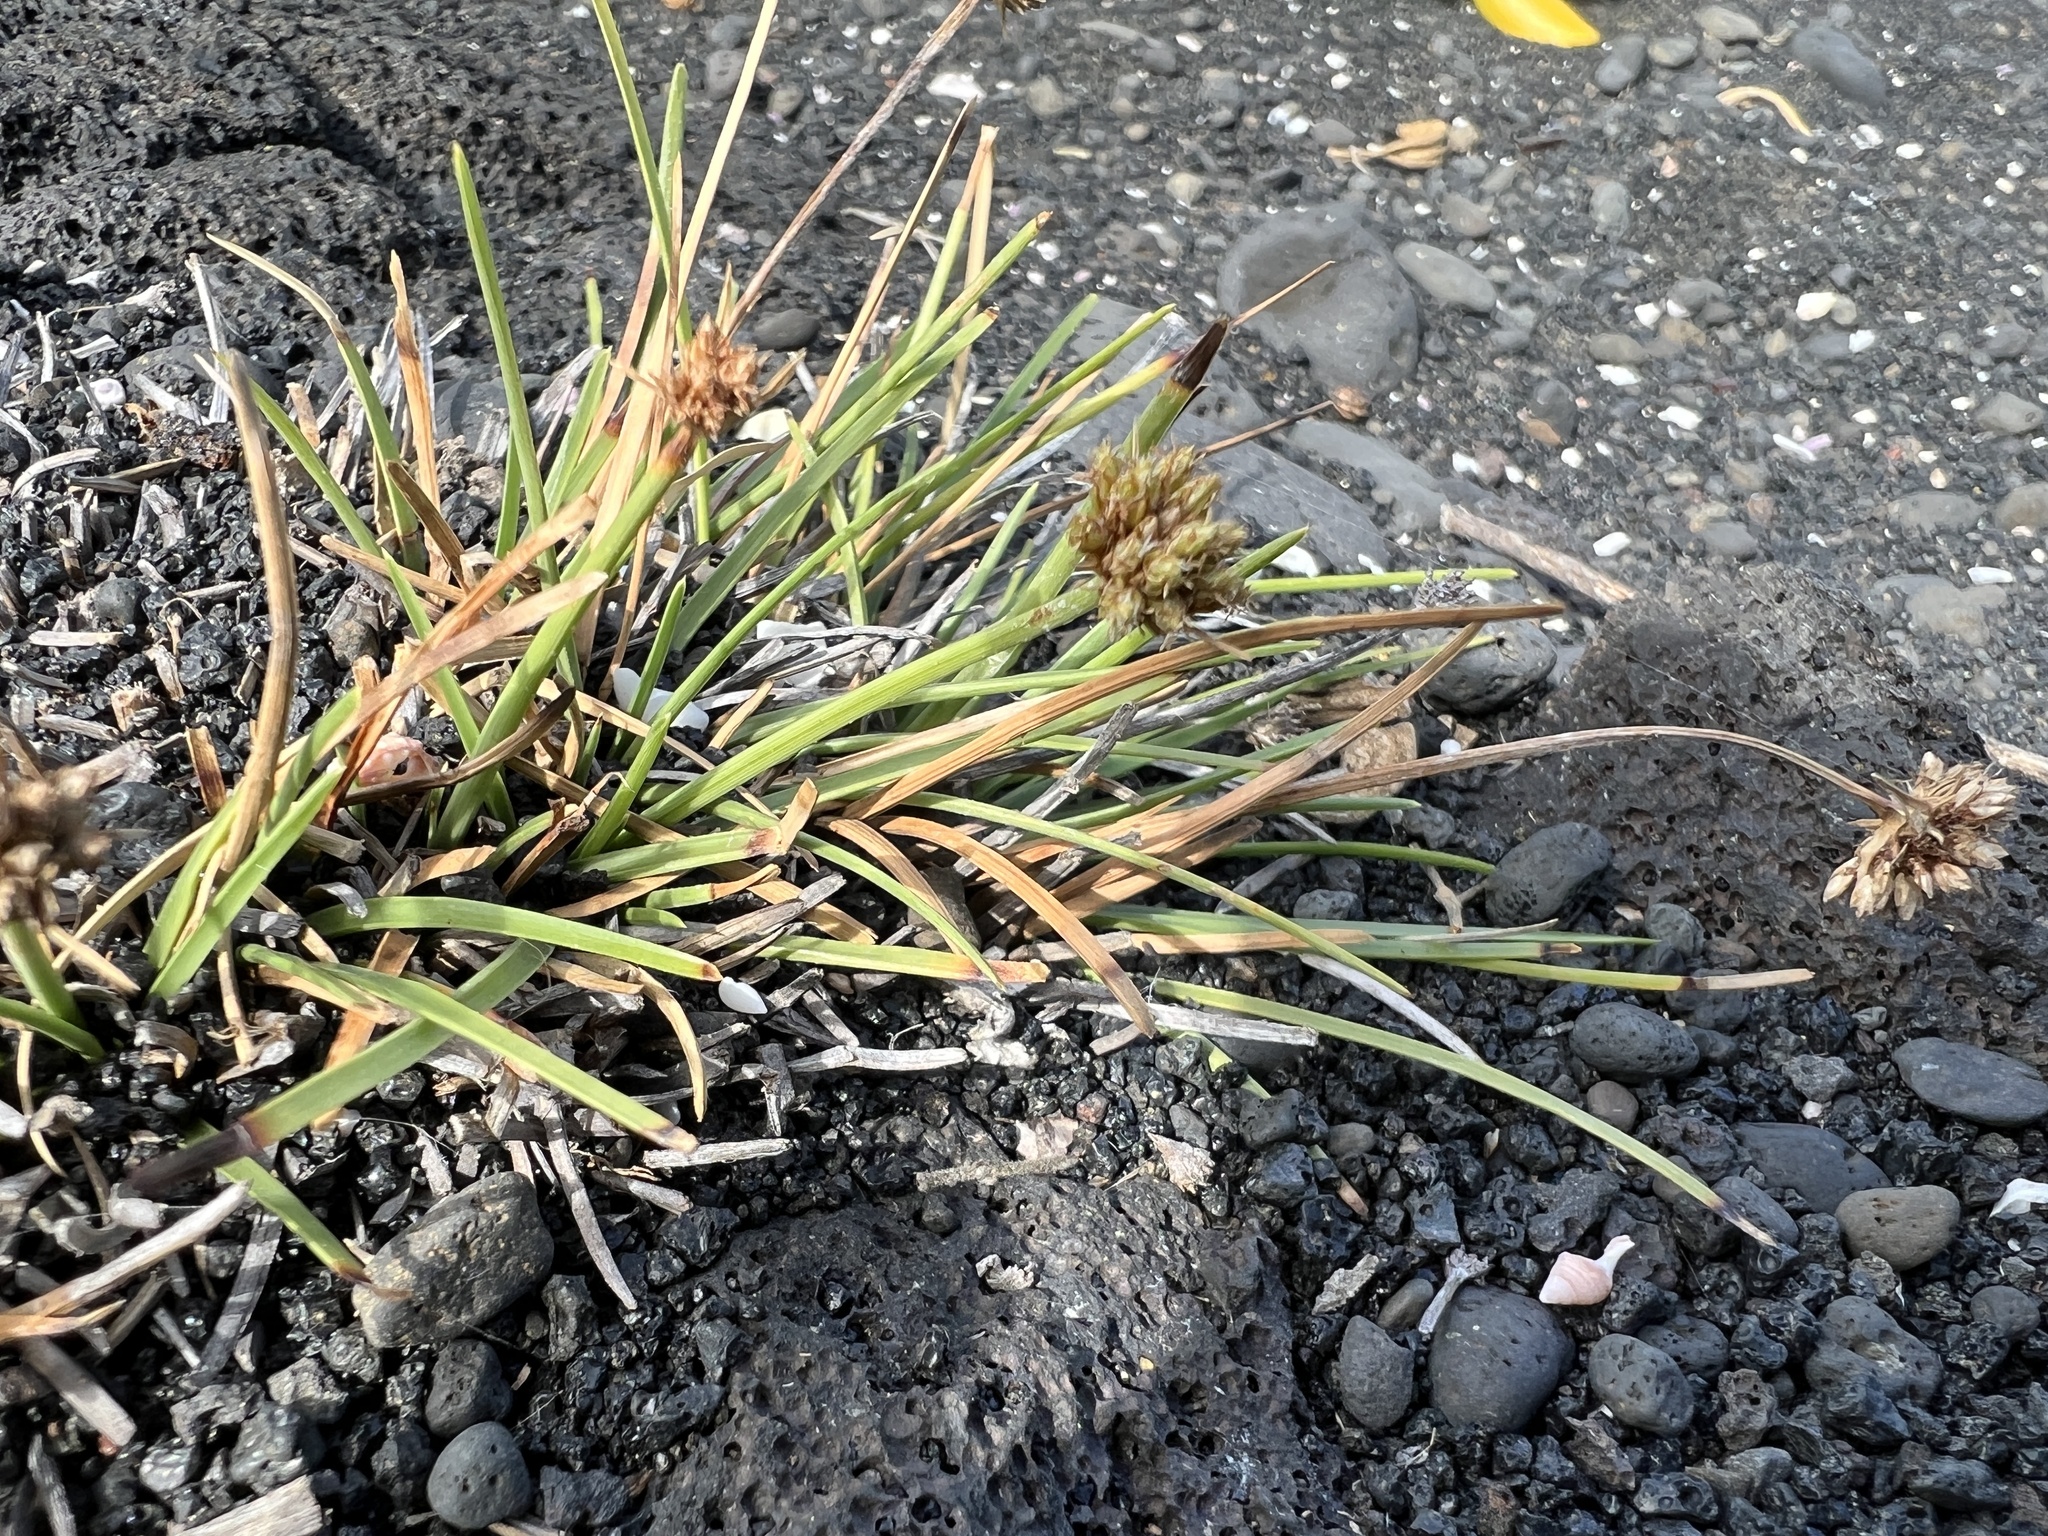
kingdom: Plantae
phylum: Tracheophyta
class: Liliopsida
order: Poales
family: Cyperaceae
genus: Fimbristylis
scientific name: Fimbristylis cymosa
